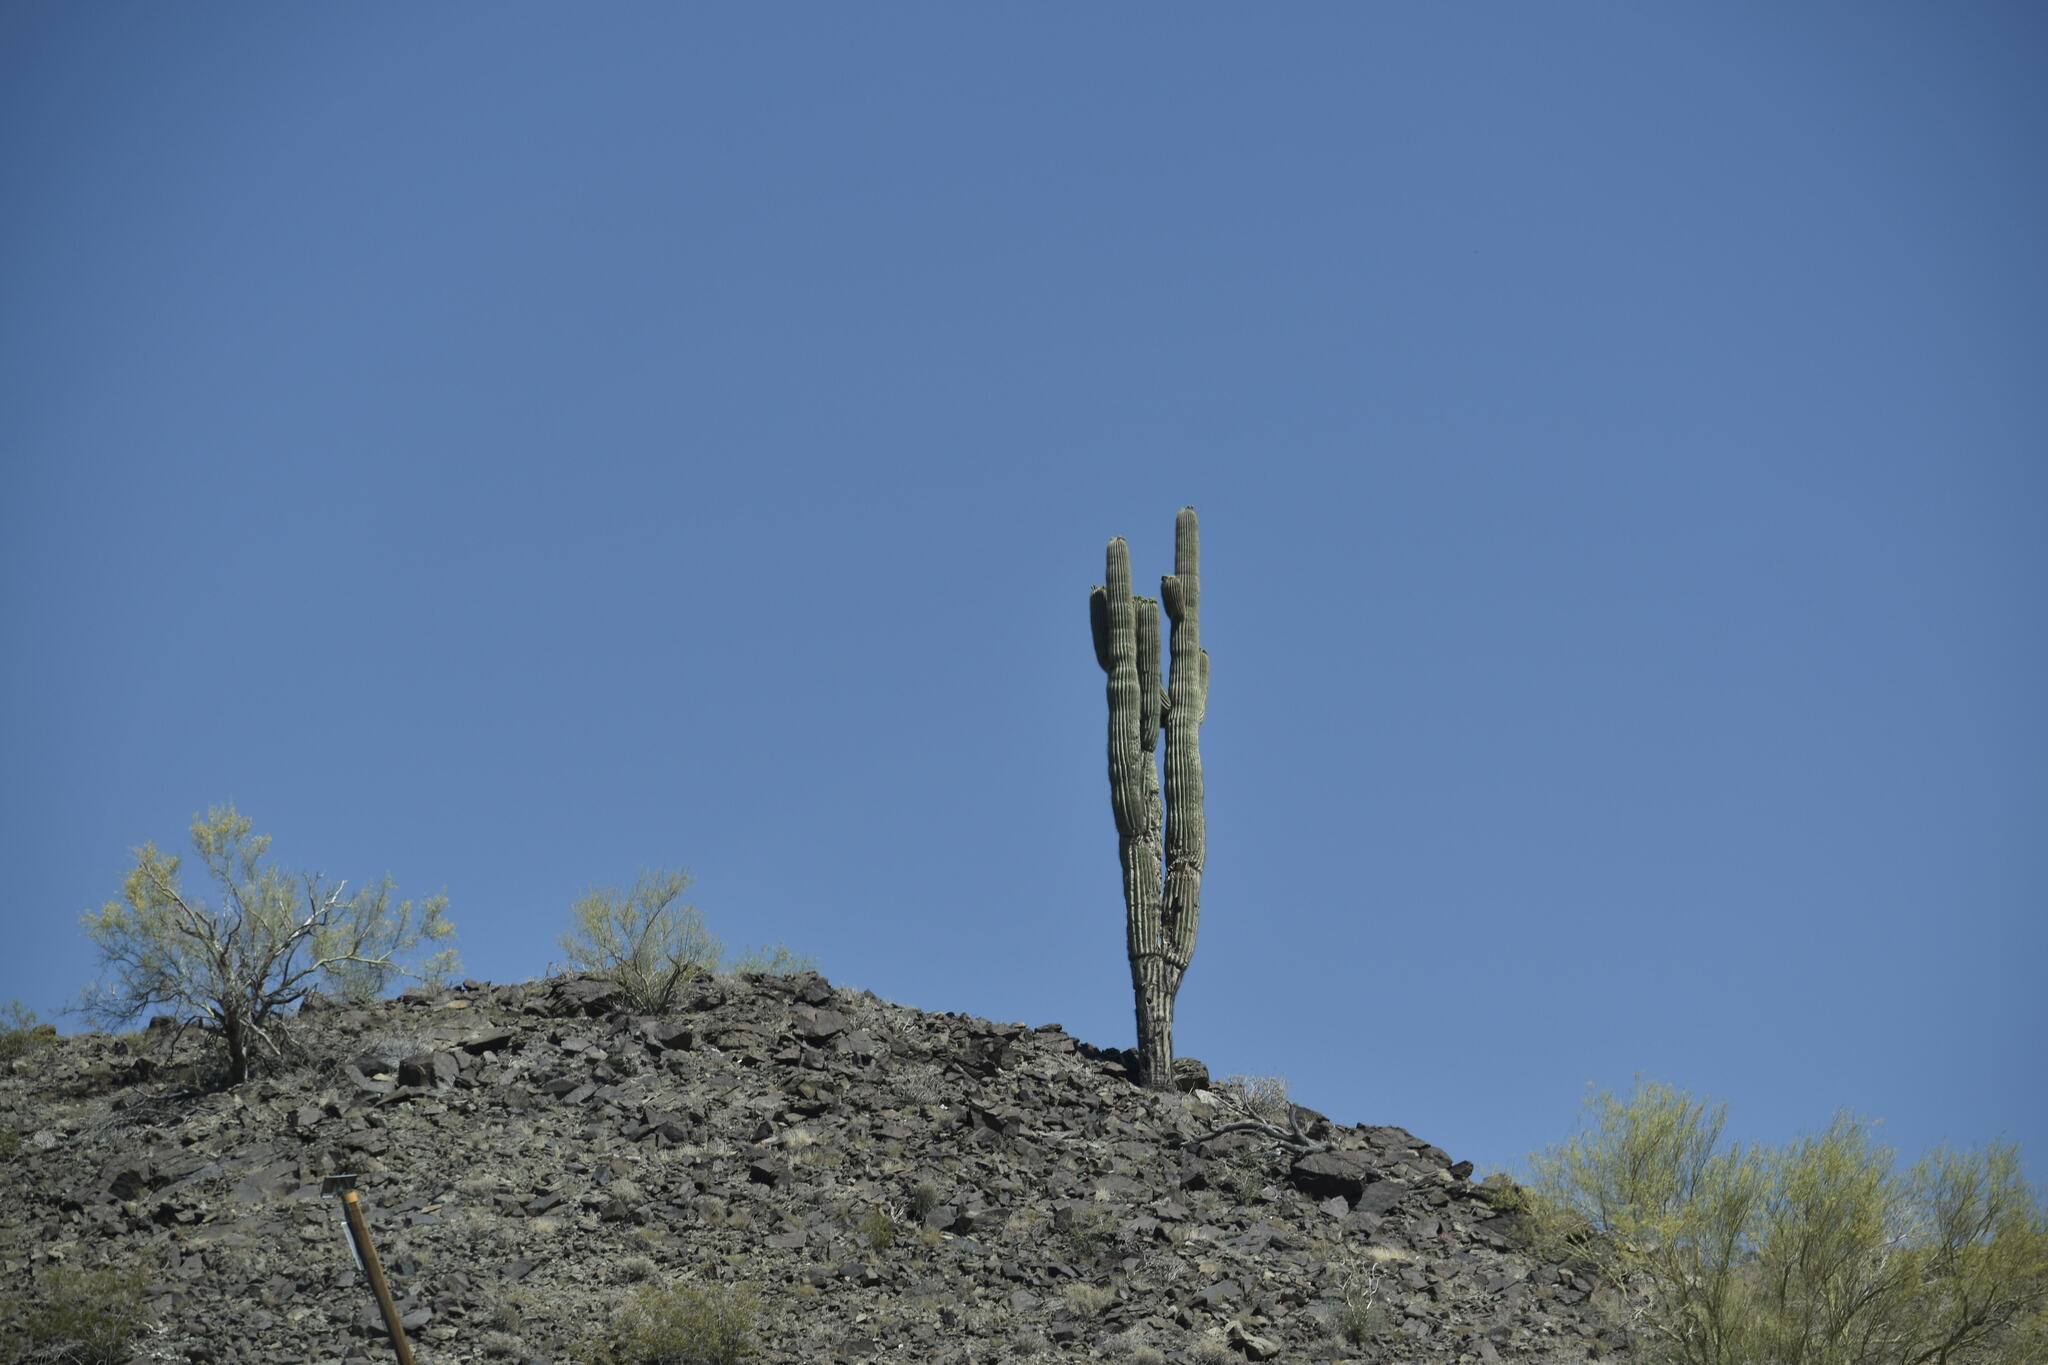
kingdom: Plantae
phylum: Tracheophyta
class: Magnoliopsida
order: Caryophyllales
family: Cactaceae
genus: Carnegiea
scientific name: Carnegiea gigantea
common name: Saguaro
